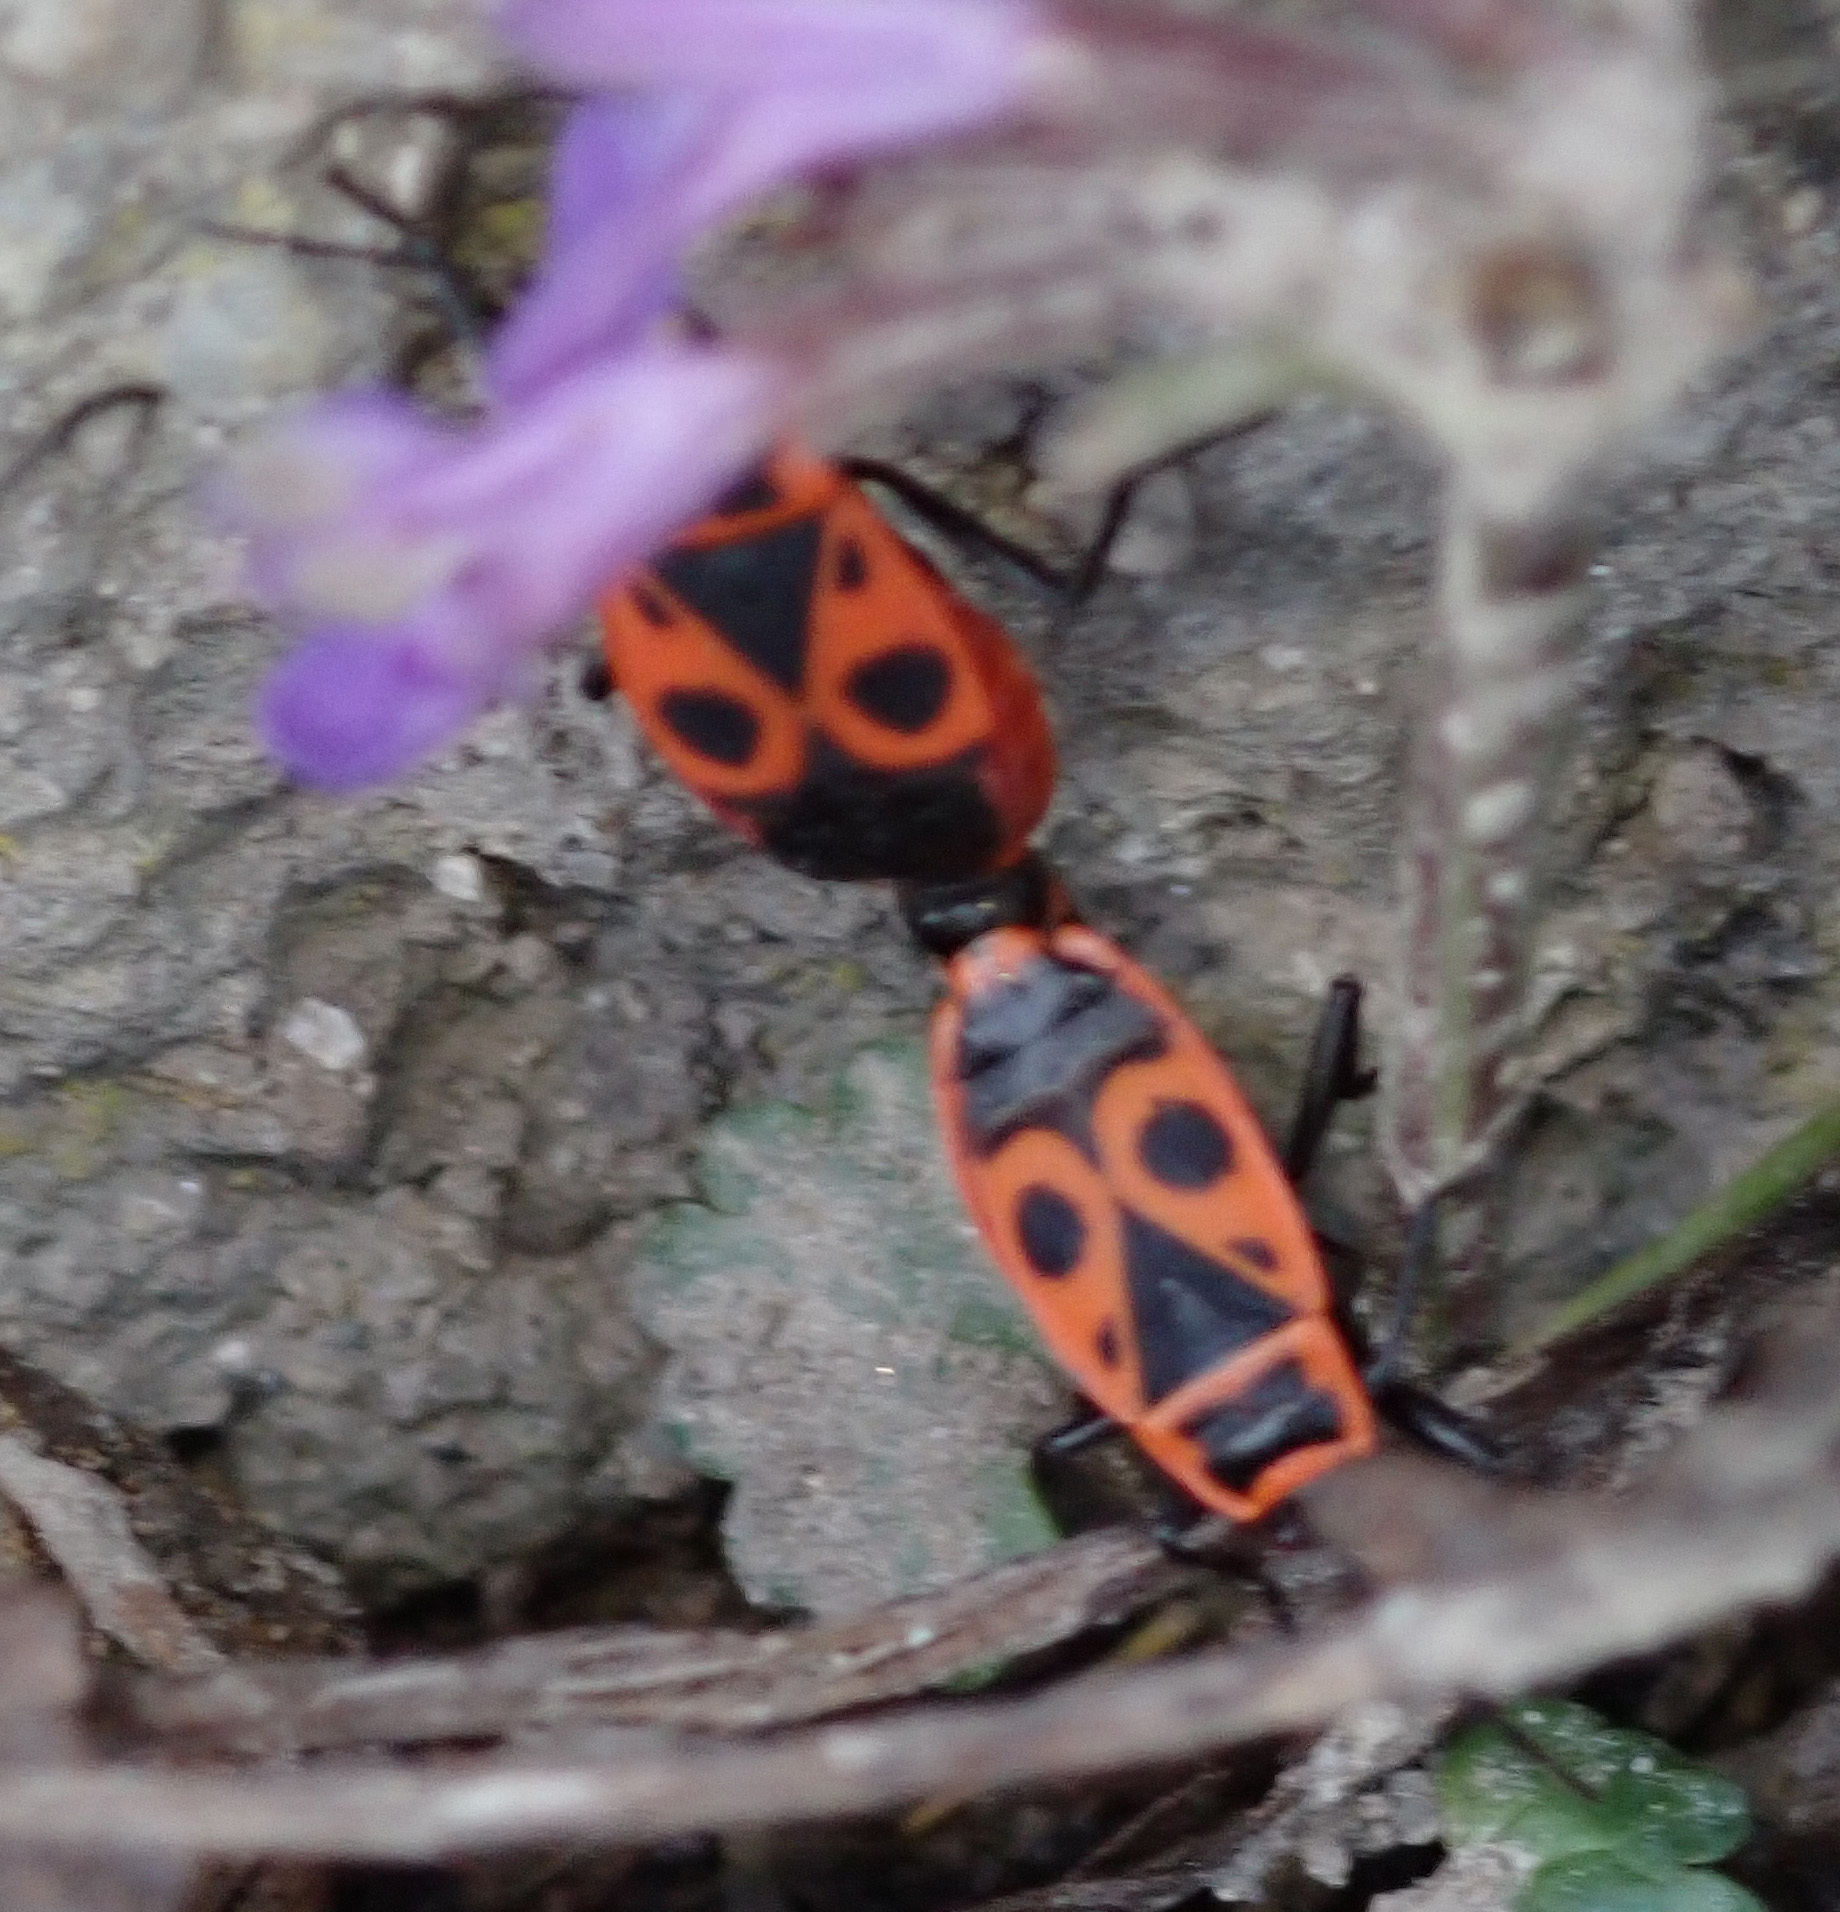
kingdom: Animalia
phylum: Arthropoda
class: Insecta
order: Hemiptera
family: Pyrrhocoridae
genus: Pyrrhocoris
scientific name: Pyrrhocoris apterus
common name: Firebug
